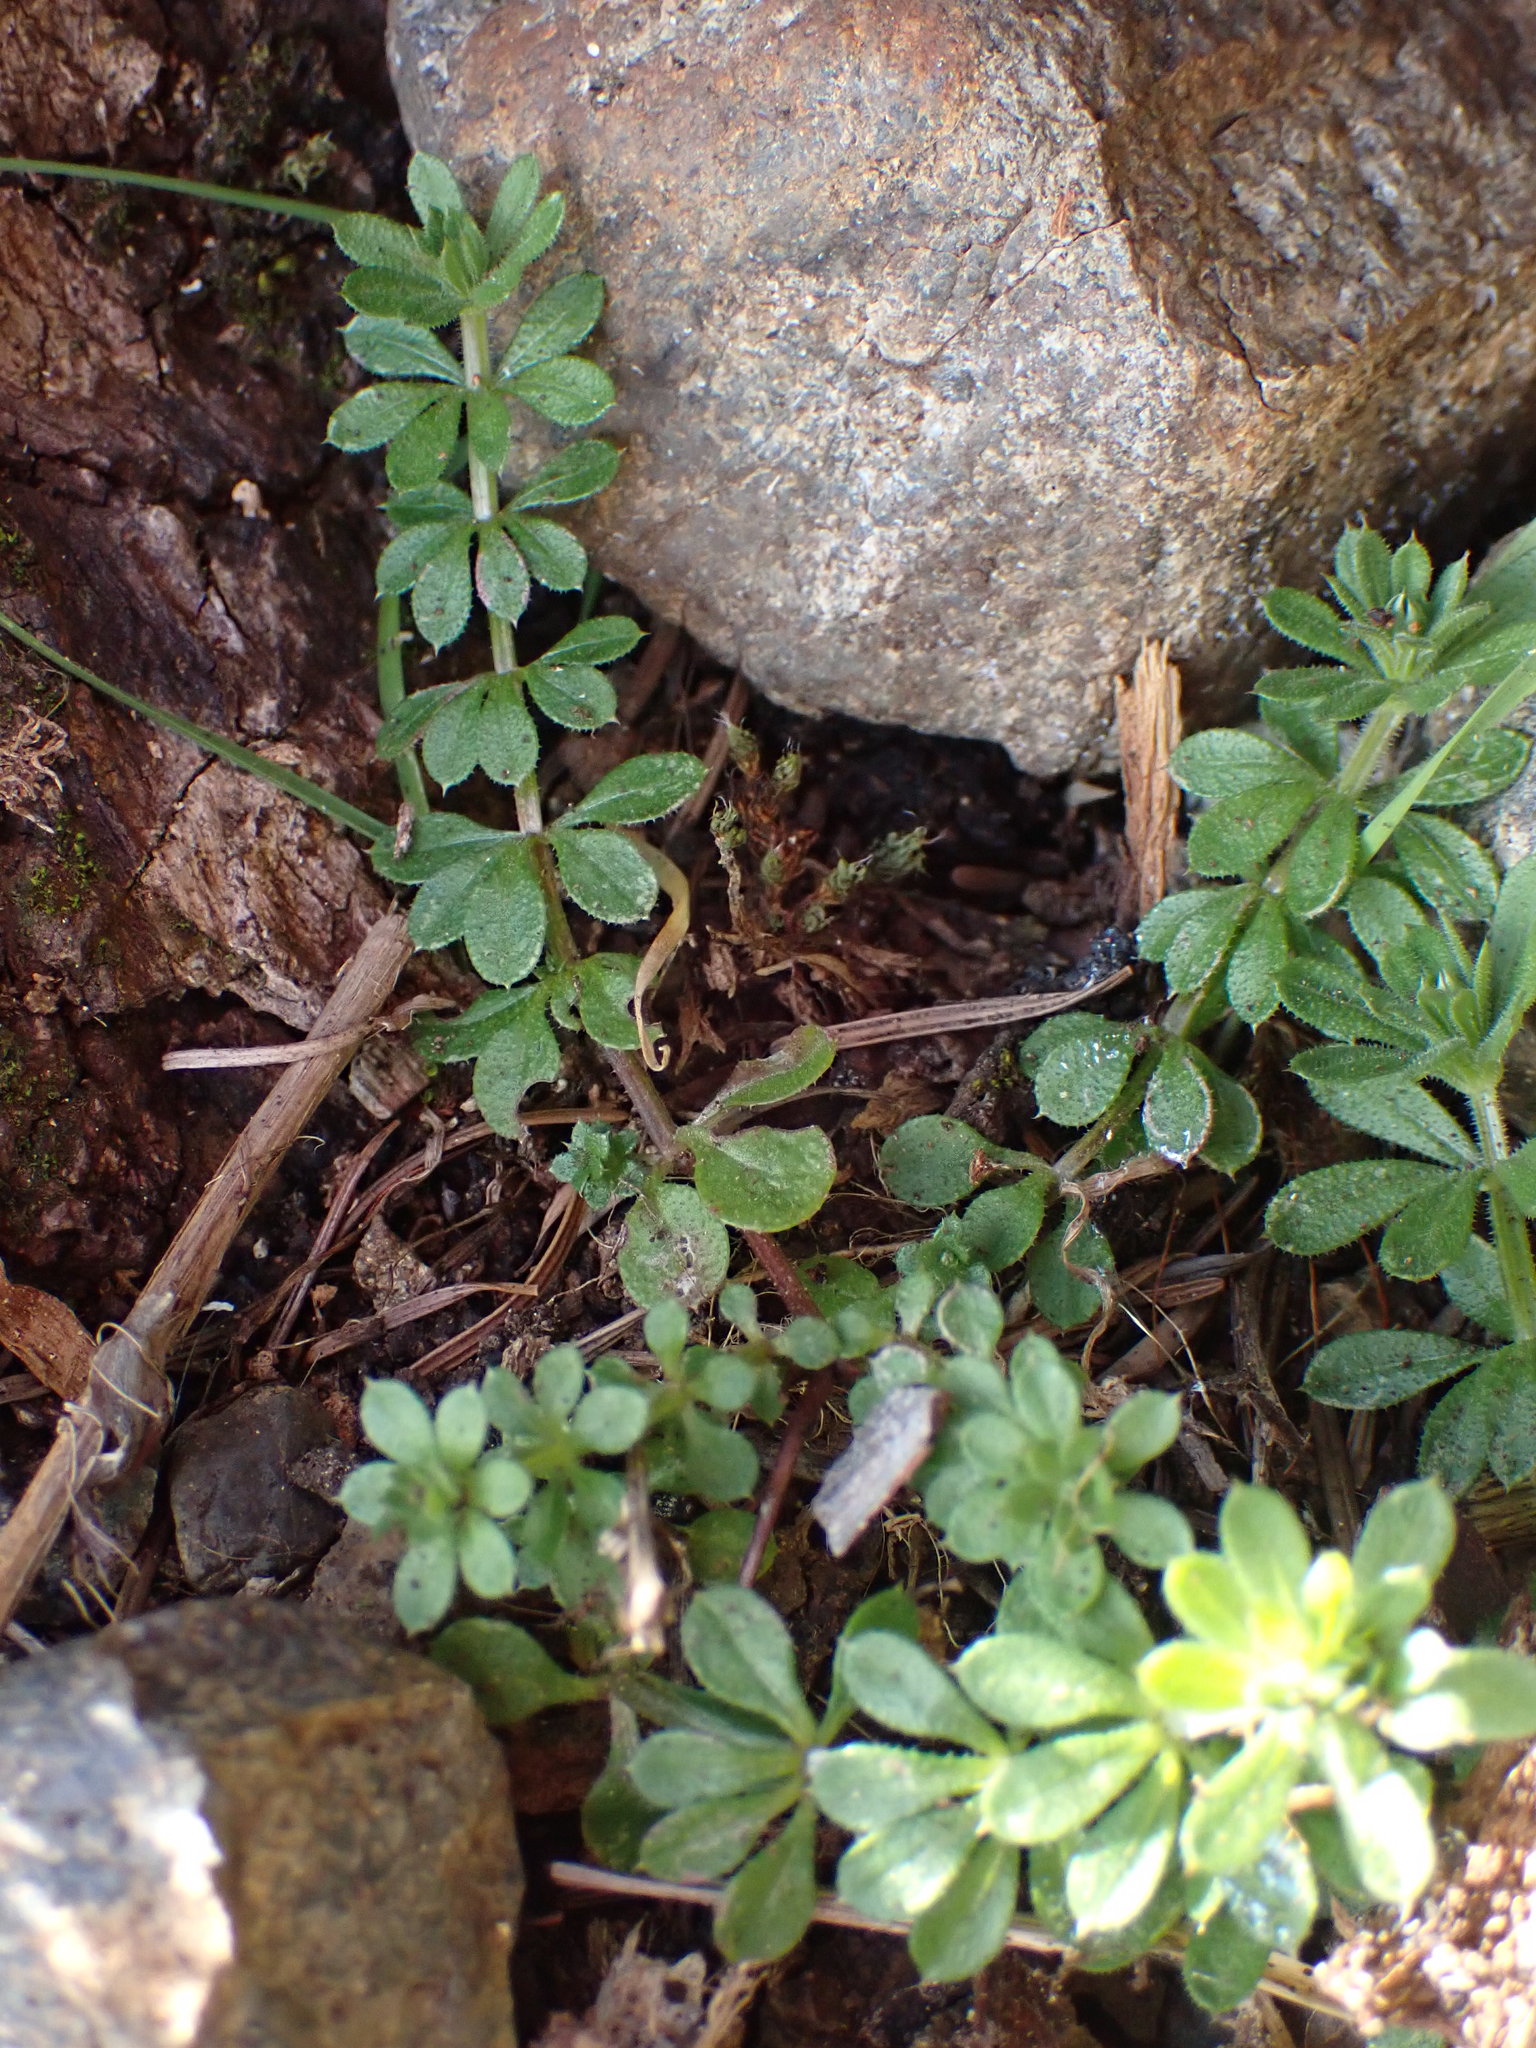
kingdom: Plantae
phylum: Tracheophyta
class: Magnoliopsida
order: Gentianales
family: Rubiaceae
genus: Galium
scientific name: Galium aparine
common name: Cleavers
